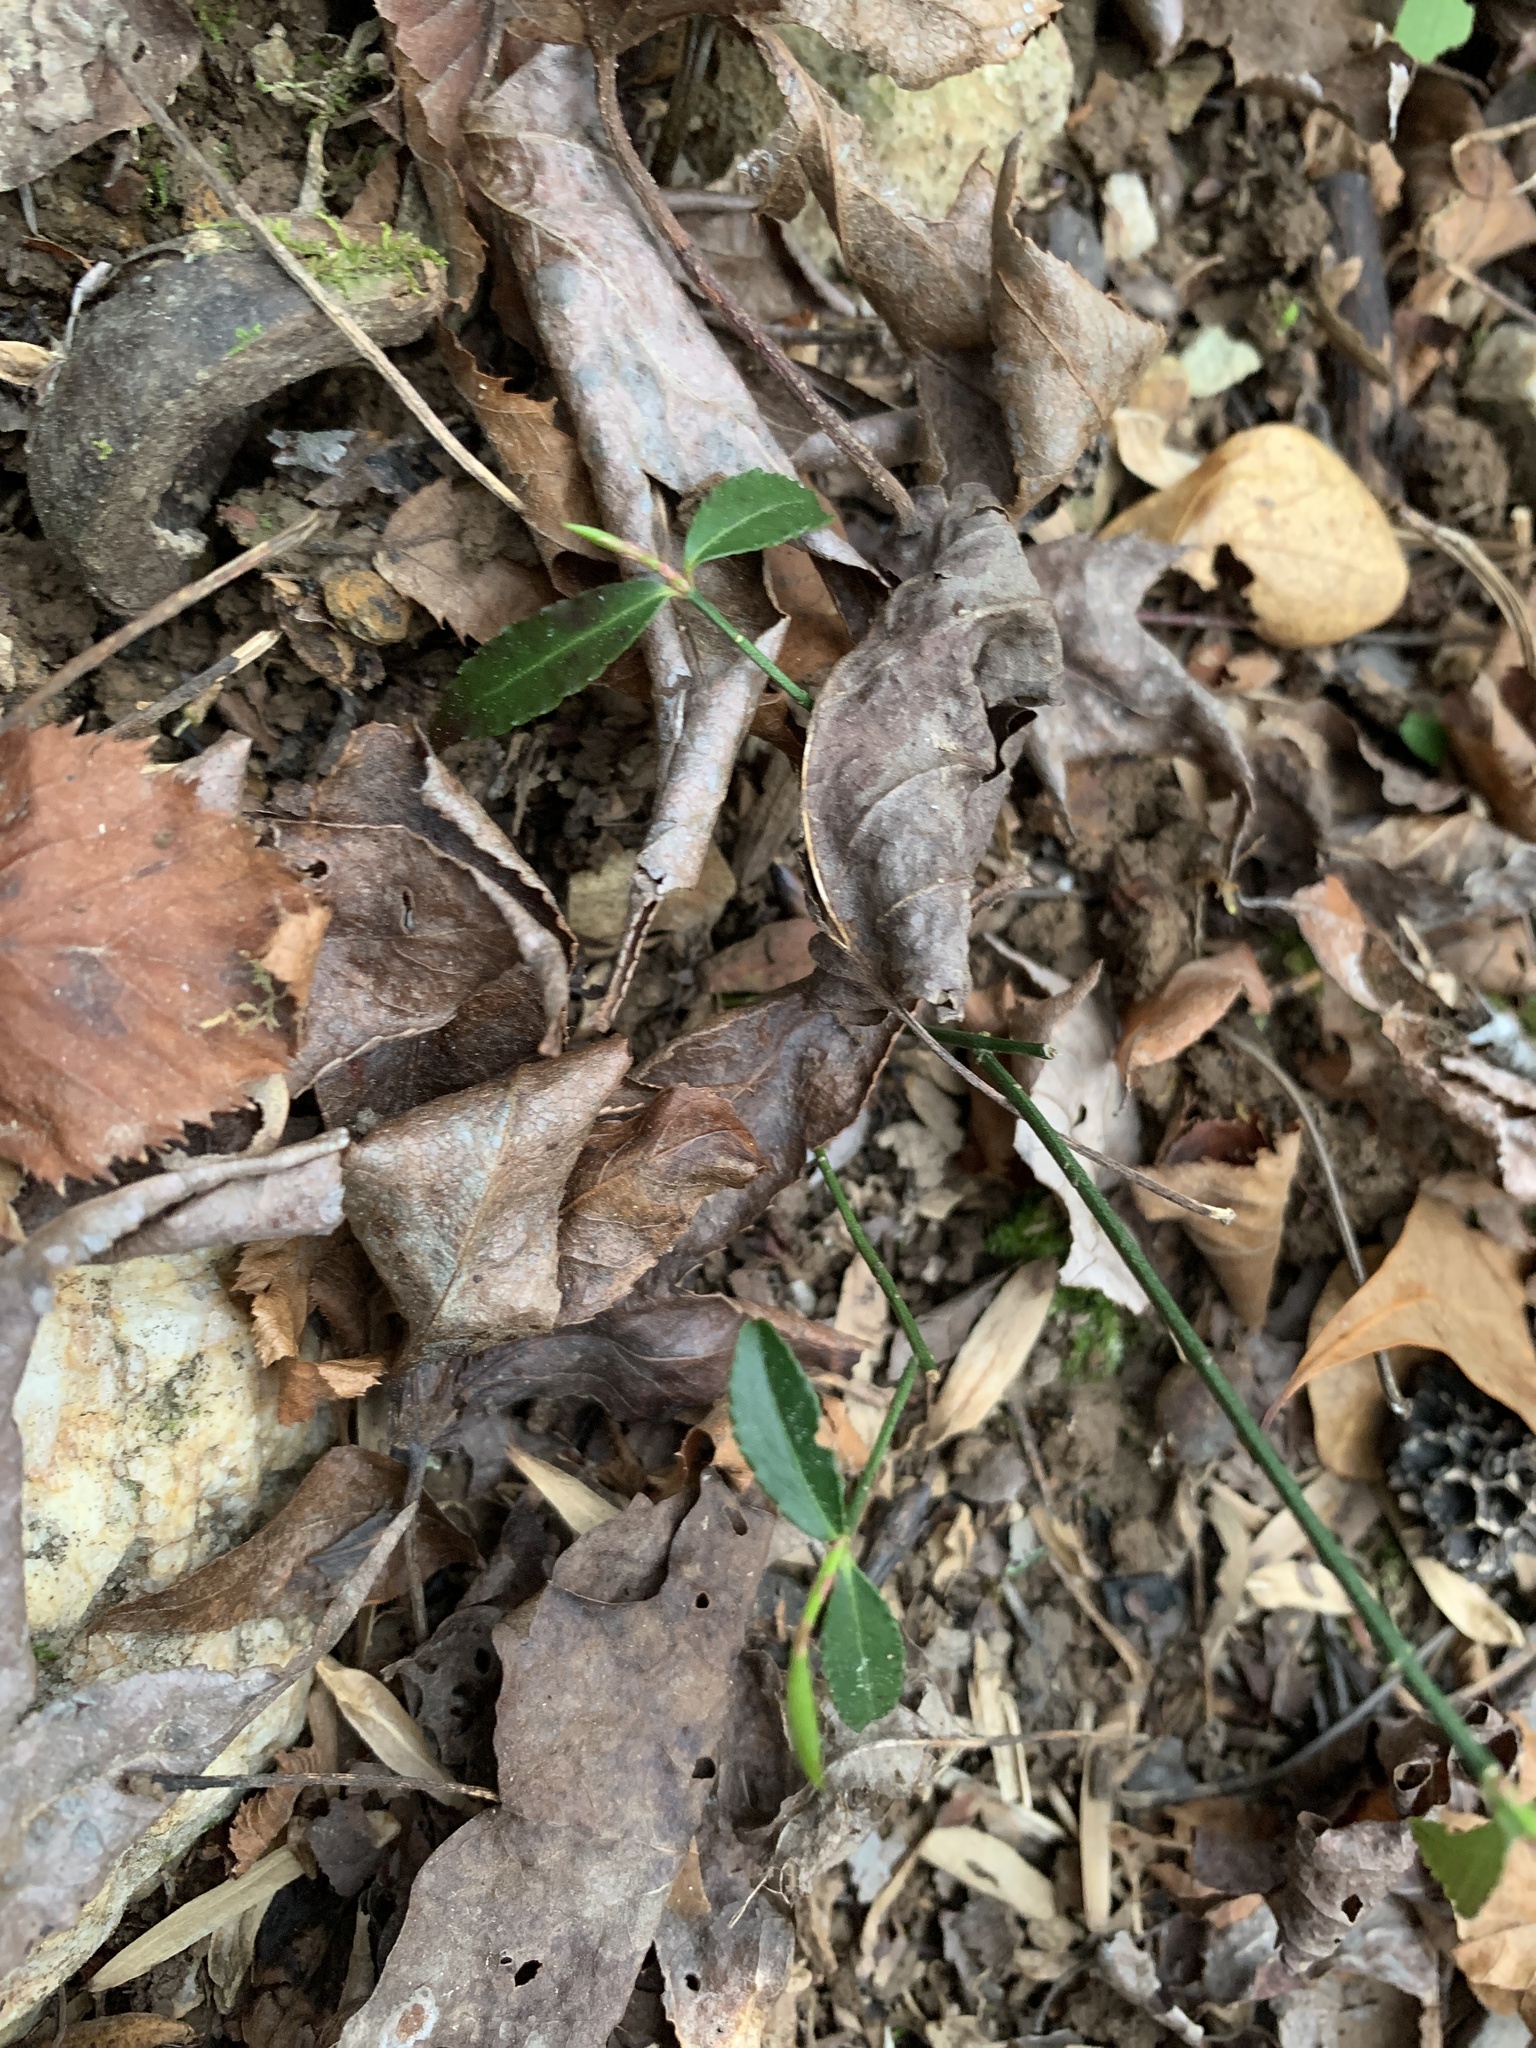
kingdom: Plantae
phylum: Tracheophyta
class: Magnoliopsida
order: Celastrales
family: Celastraceae
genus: Euonymus
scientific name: Euonymus americanus
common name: Bursting-heart
